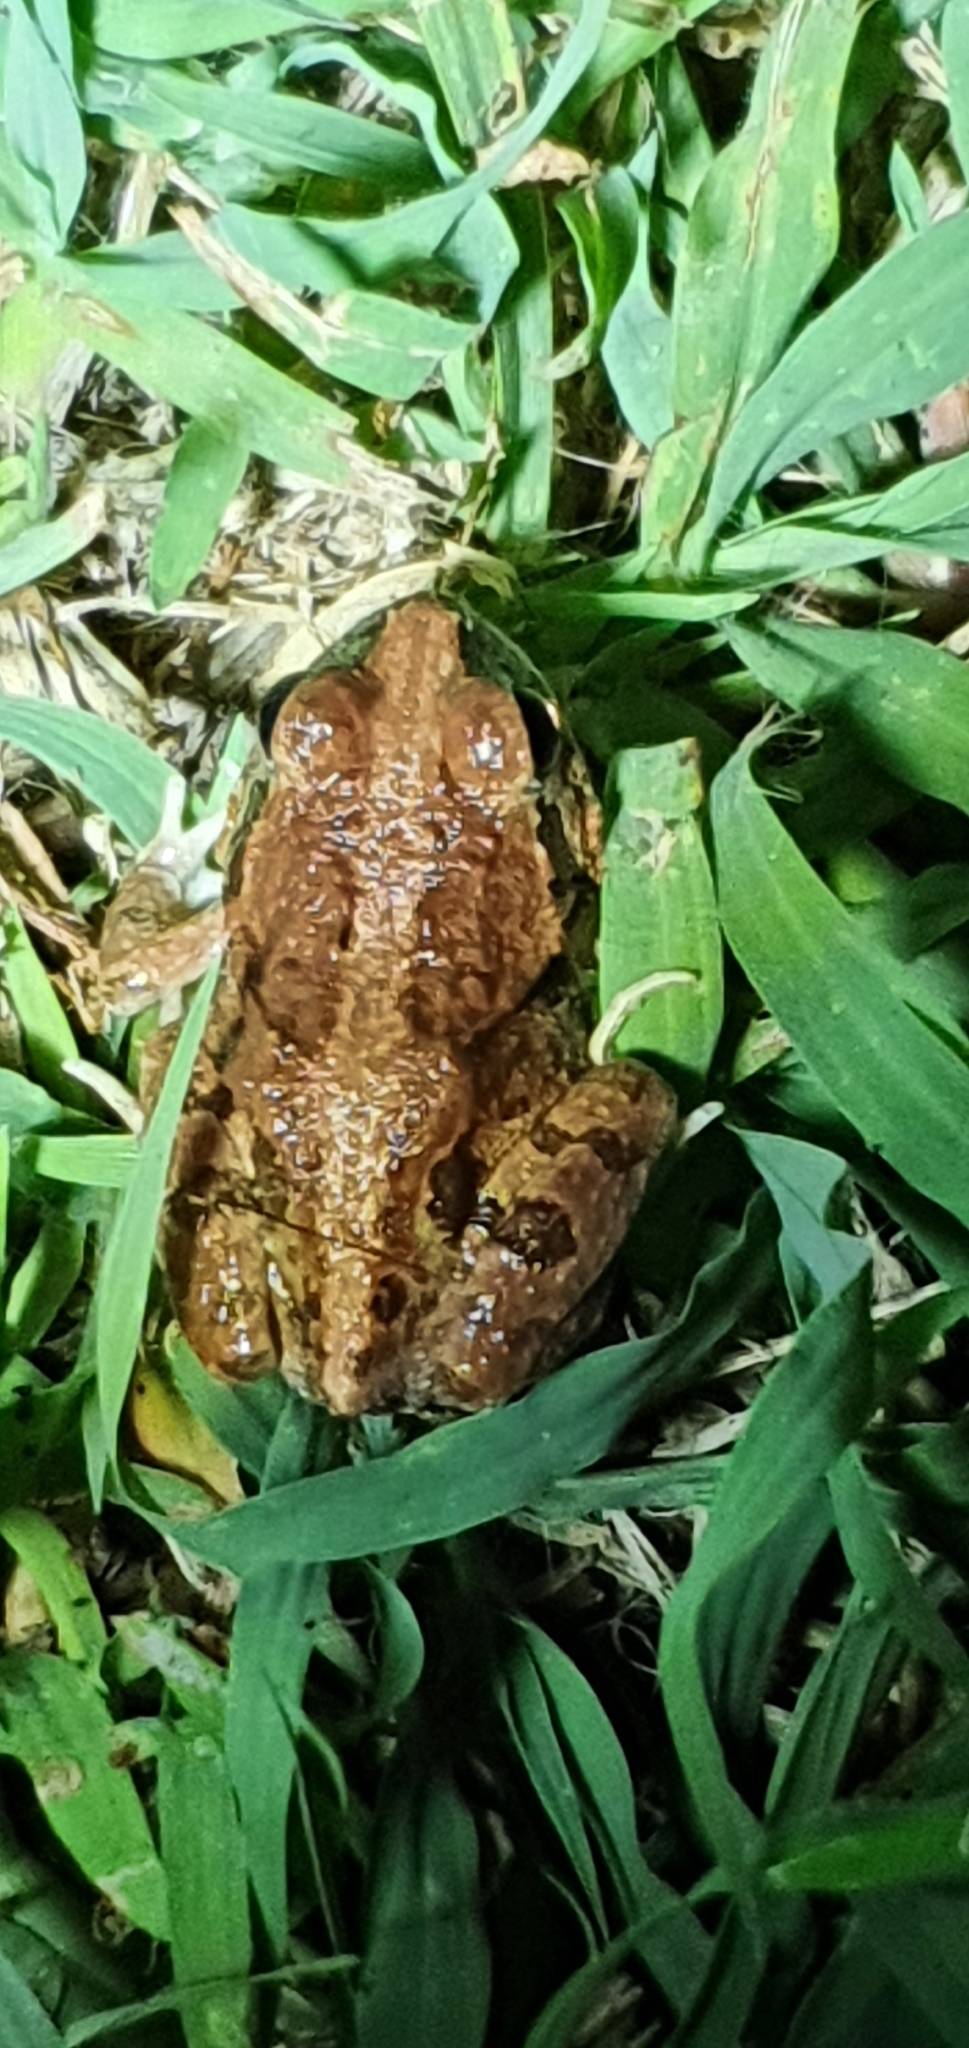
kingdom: Animalia
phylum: Chordata
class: Amphibia
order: Anura
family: Limnodynastidae
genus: Platyplectrum
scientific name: Platyplectrum ornatum
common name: Ornate burrowing frog
